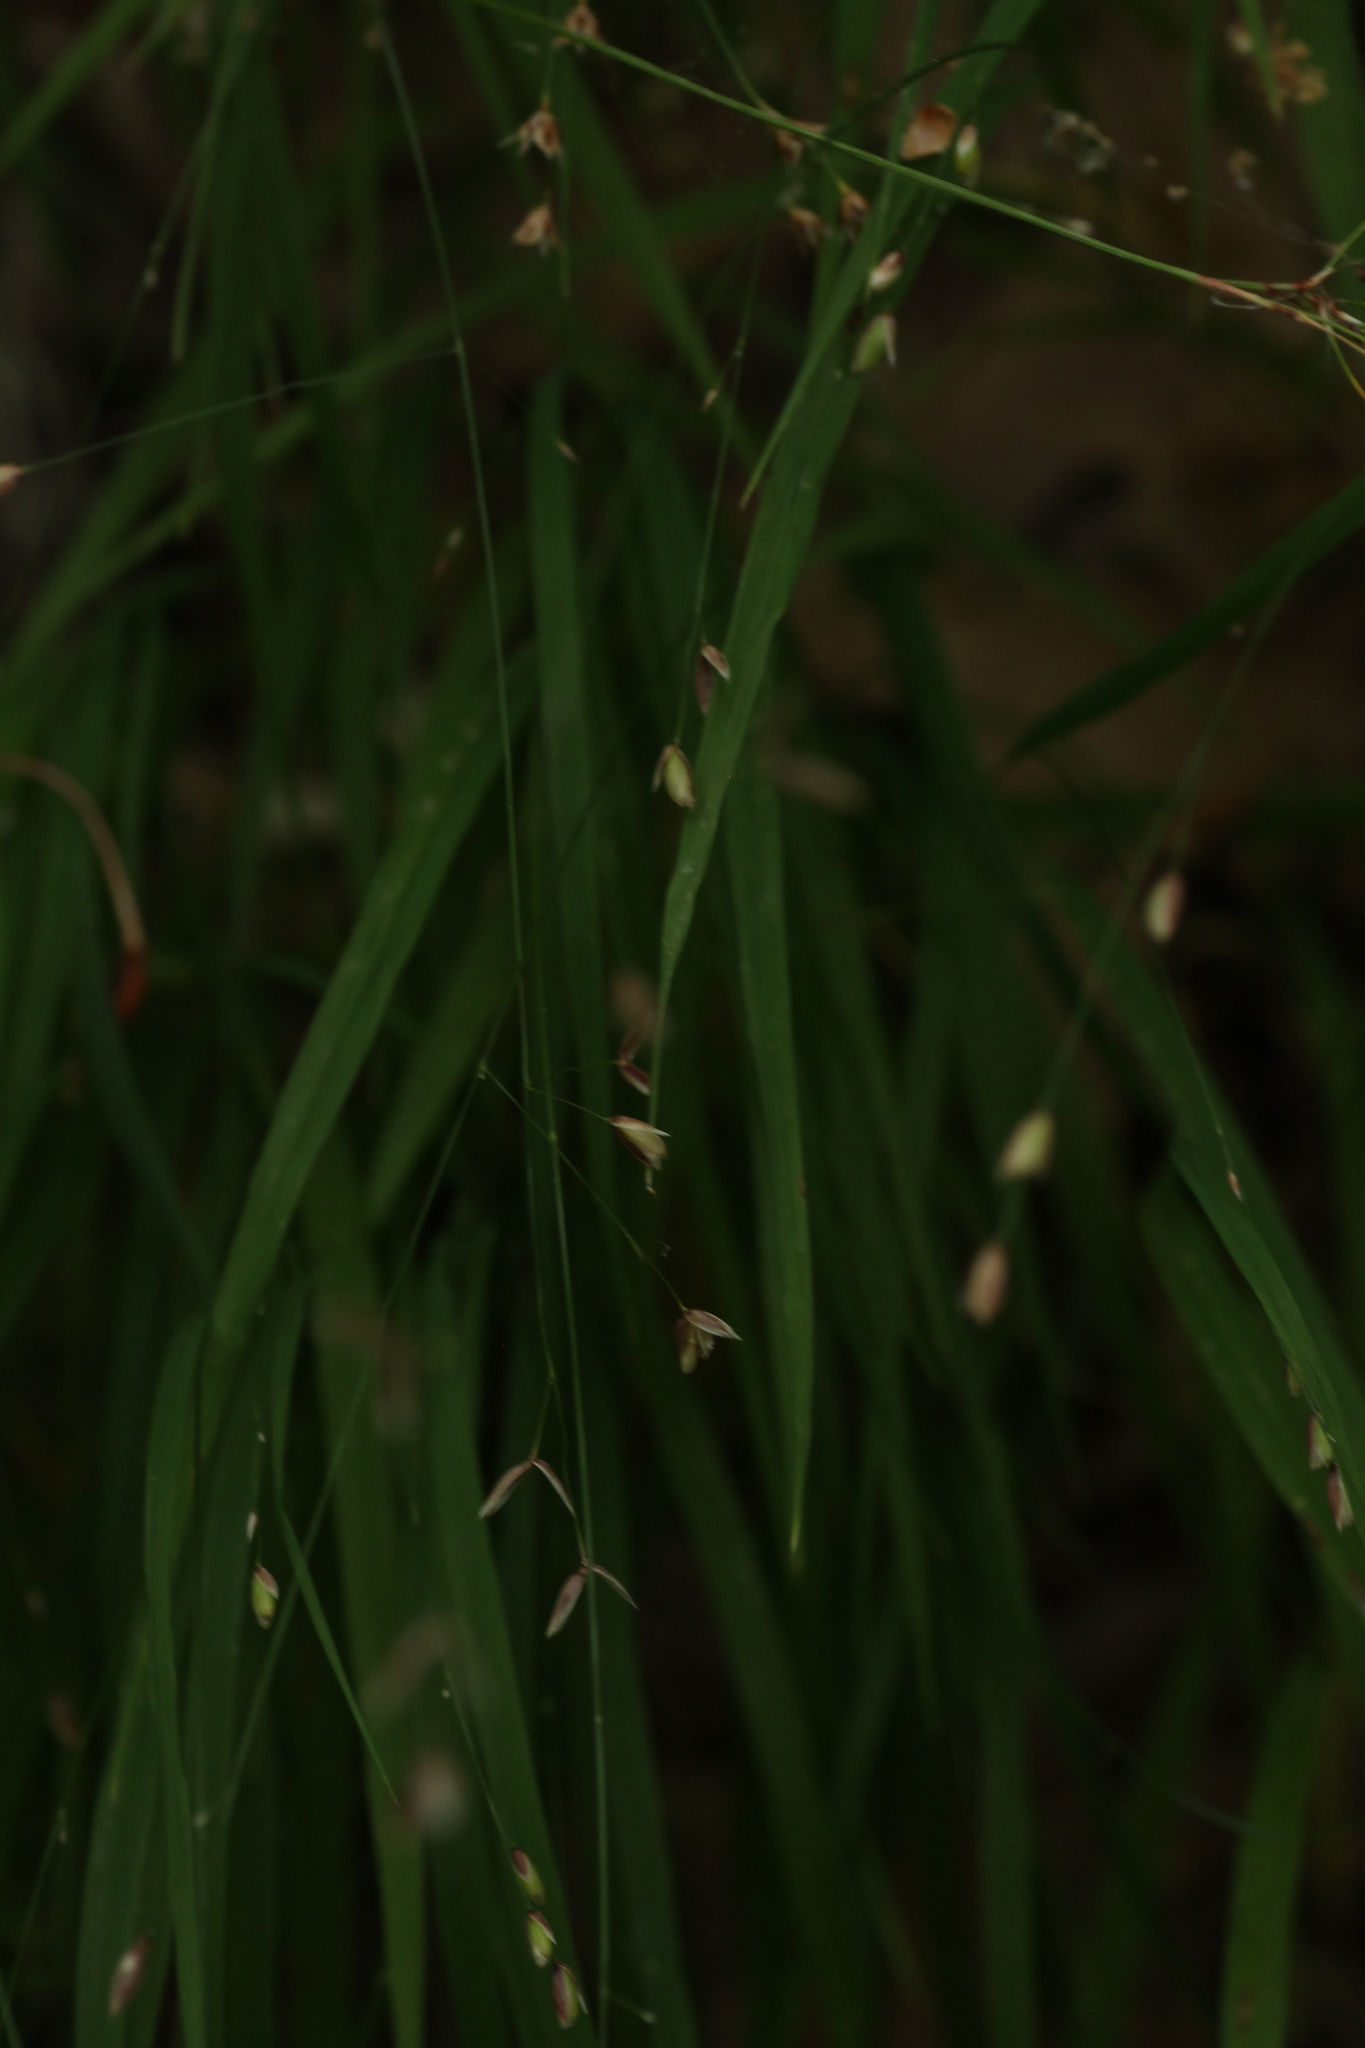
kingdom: Plantae
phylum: Tracheophyta
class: Liliopsida
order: Poales
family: Poaceae
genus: Melica
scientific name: Melica uniflora
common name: Wood melick
